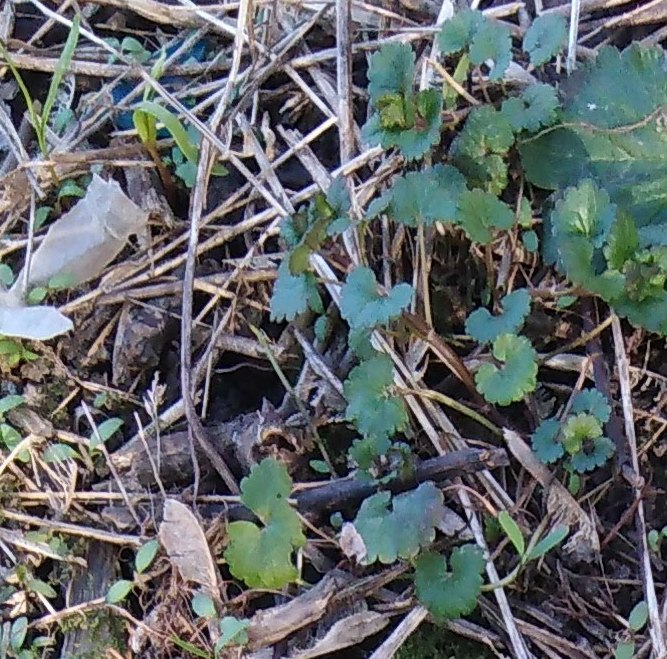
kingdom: Plantae
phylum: Tracheophyta
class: Magnoliopsida
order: Lamiales
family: Lamiaceae
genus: Glechoma
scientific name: Glechoma hederacea
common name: Ground ivy
